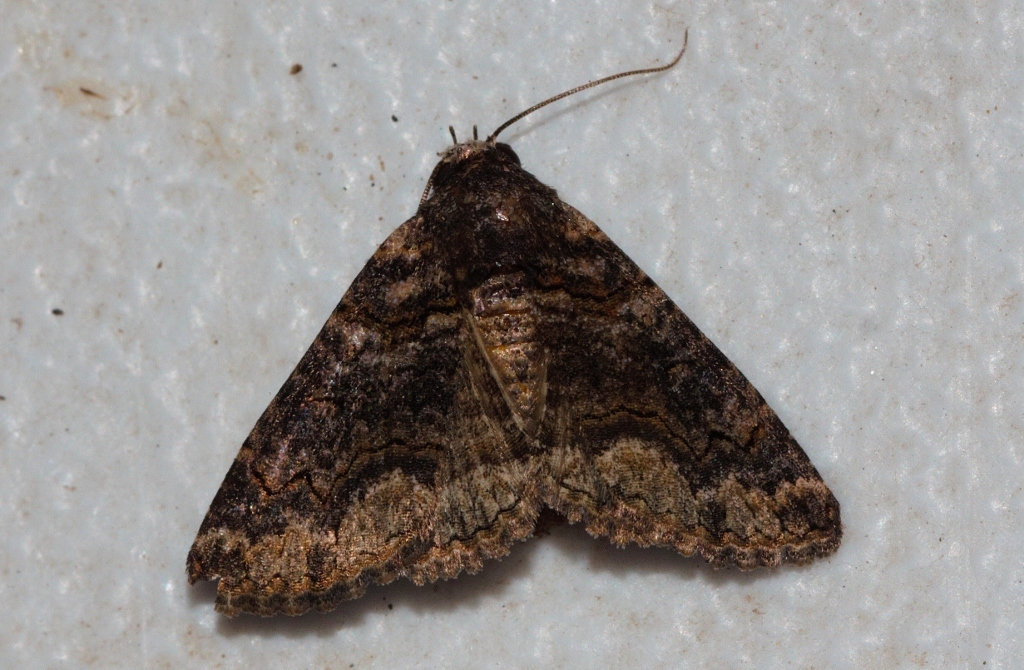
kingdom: Animalia
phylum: Arthropoda
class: Insecta
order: Lepidoptera
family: Erebidae
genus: Pericyma
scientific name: Pericyma atrifusa
